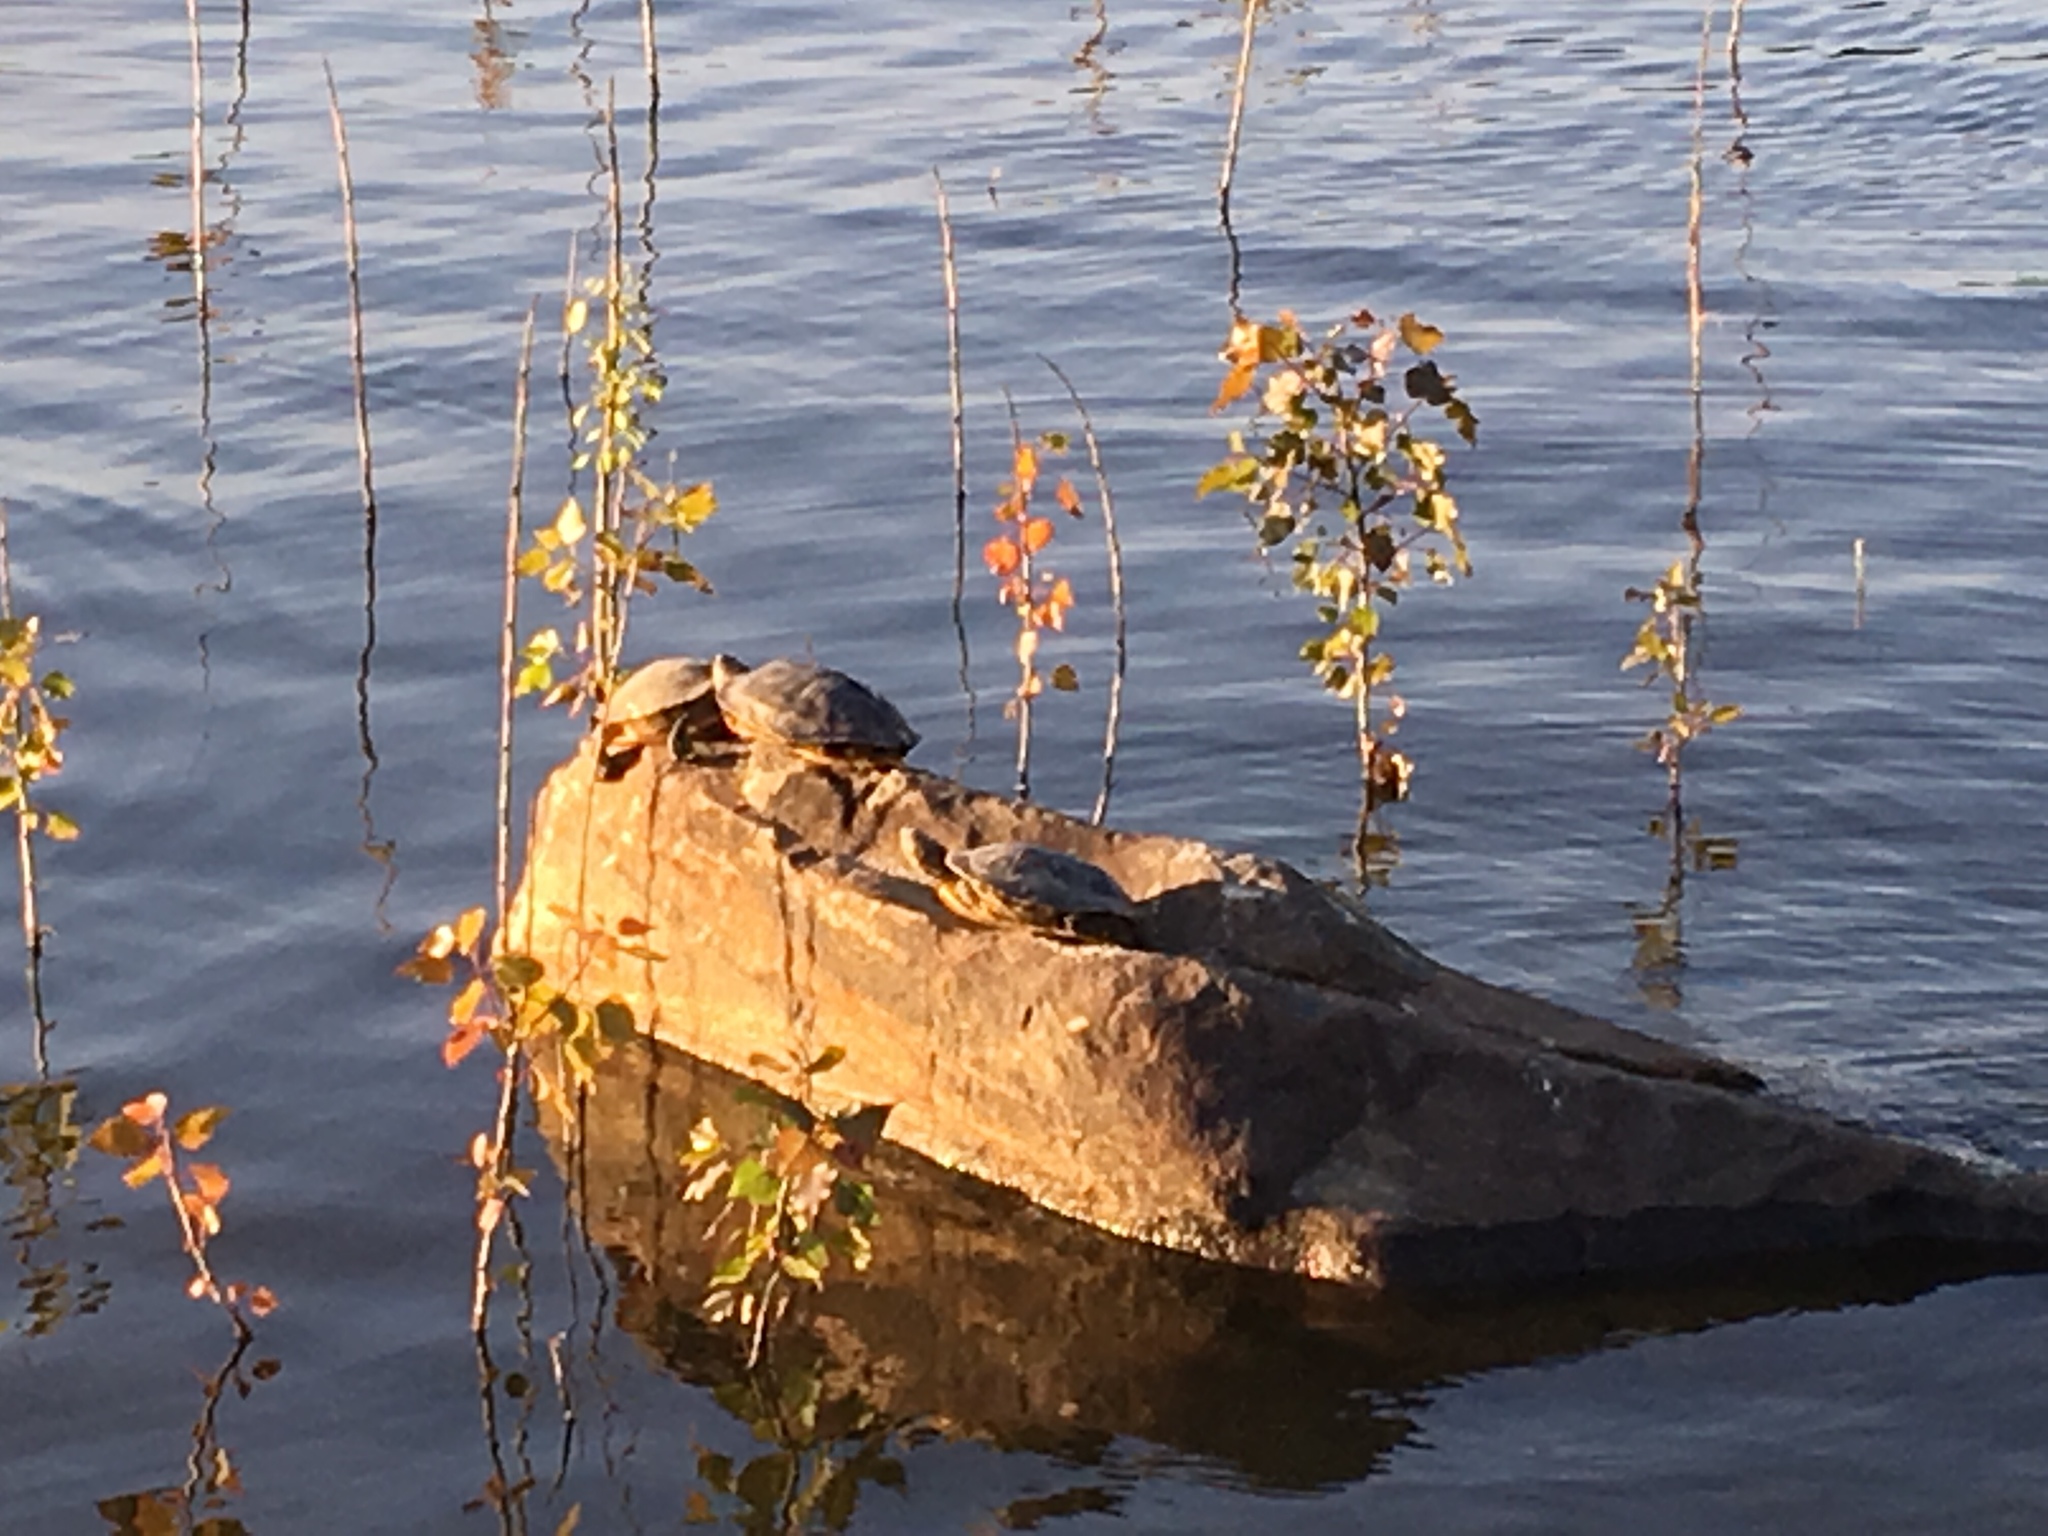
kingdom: Animalia
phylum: Chordata
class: Testudines
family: Emydidae
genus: Trachemys
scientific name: Trachemys scripta
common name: Slider
